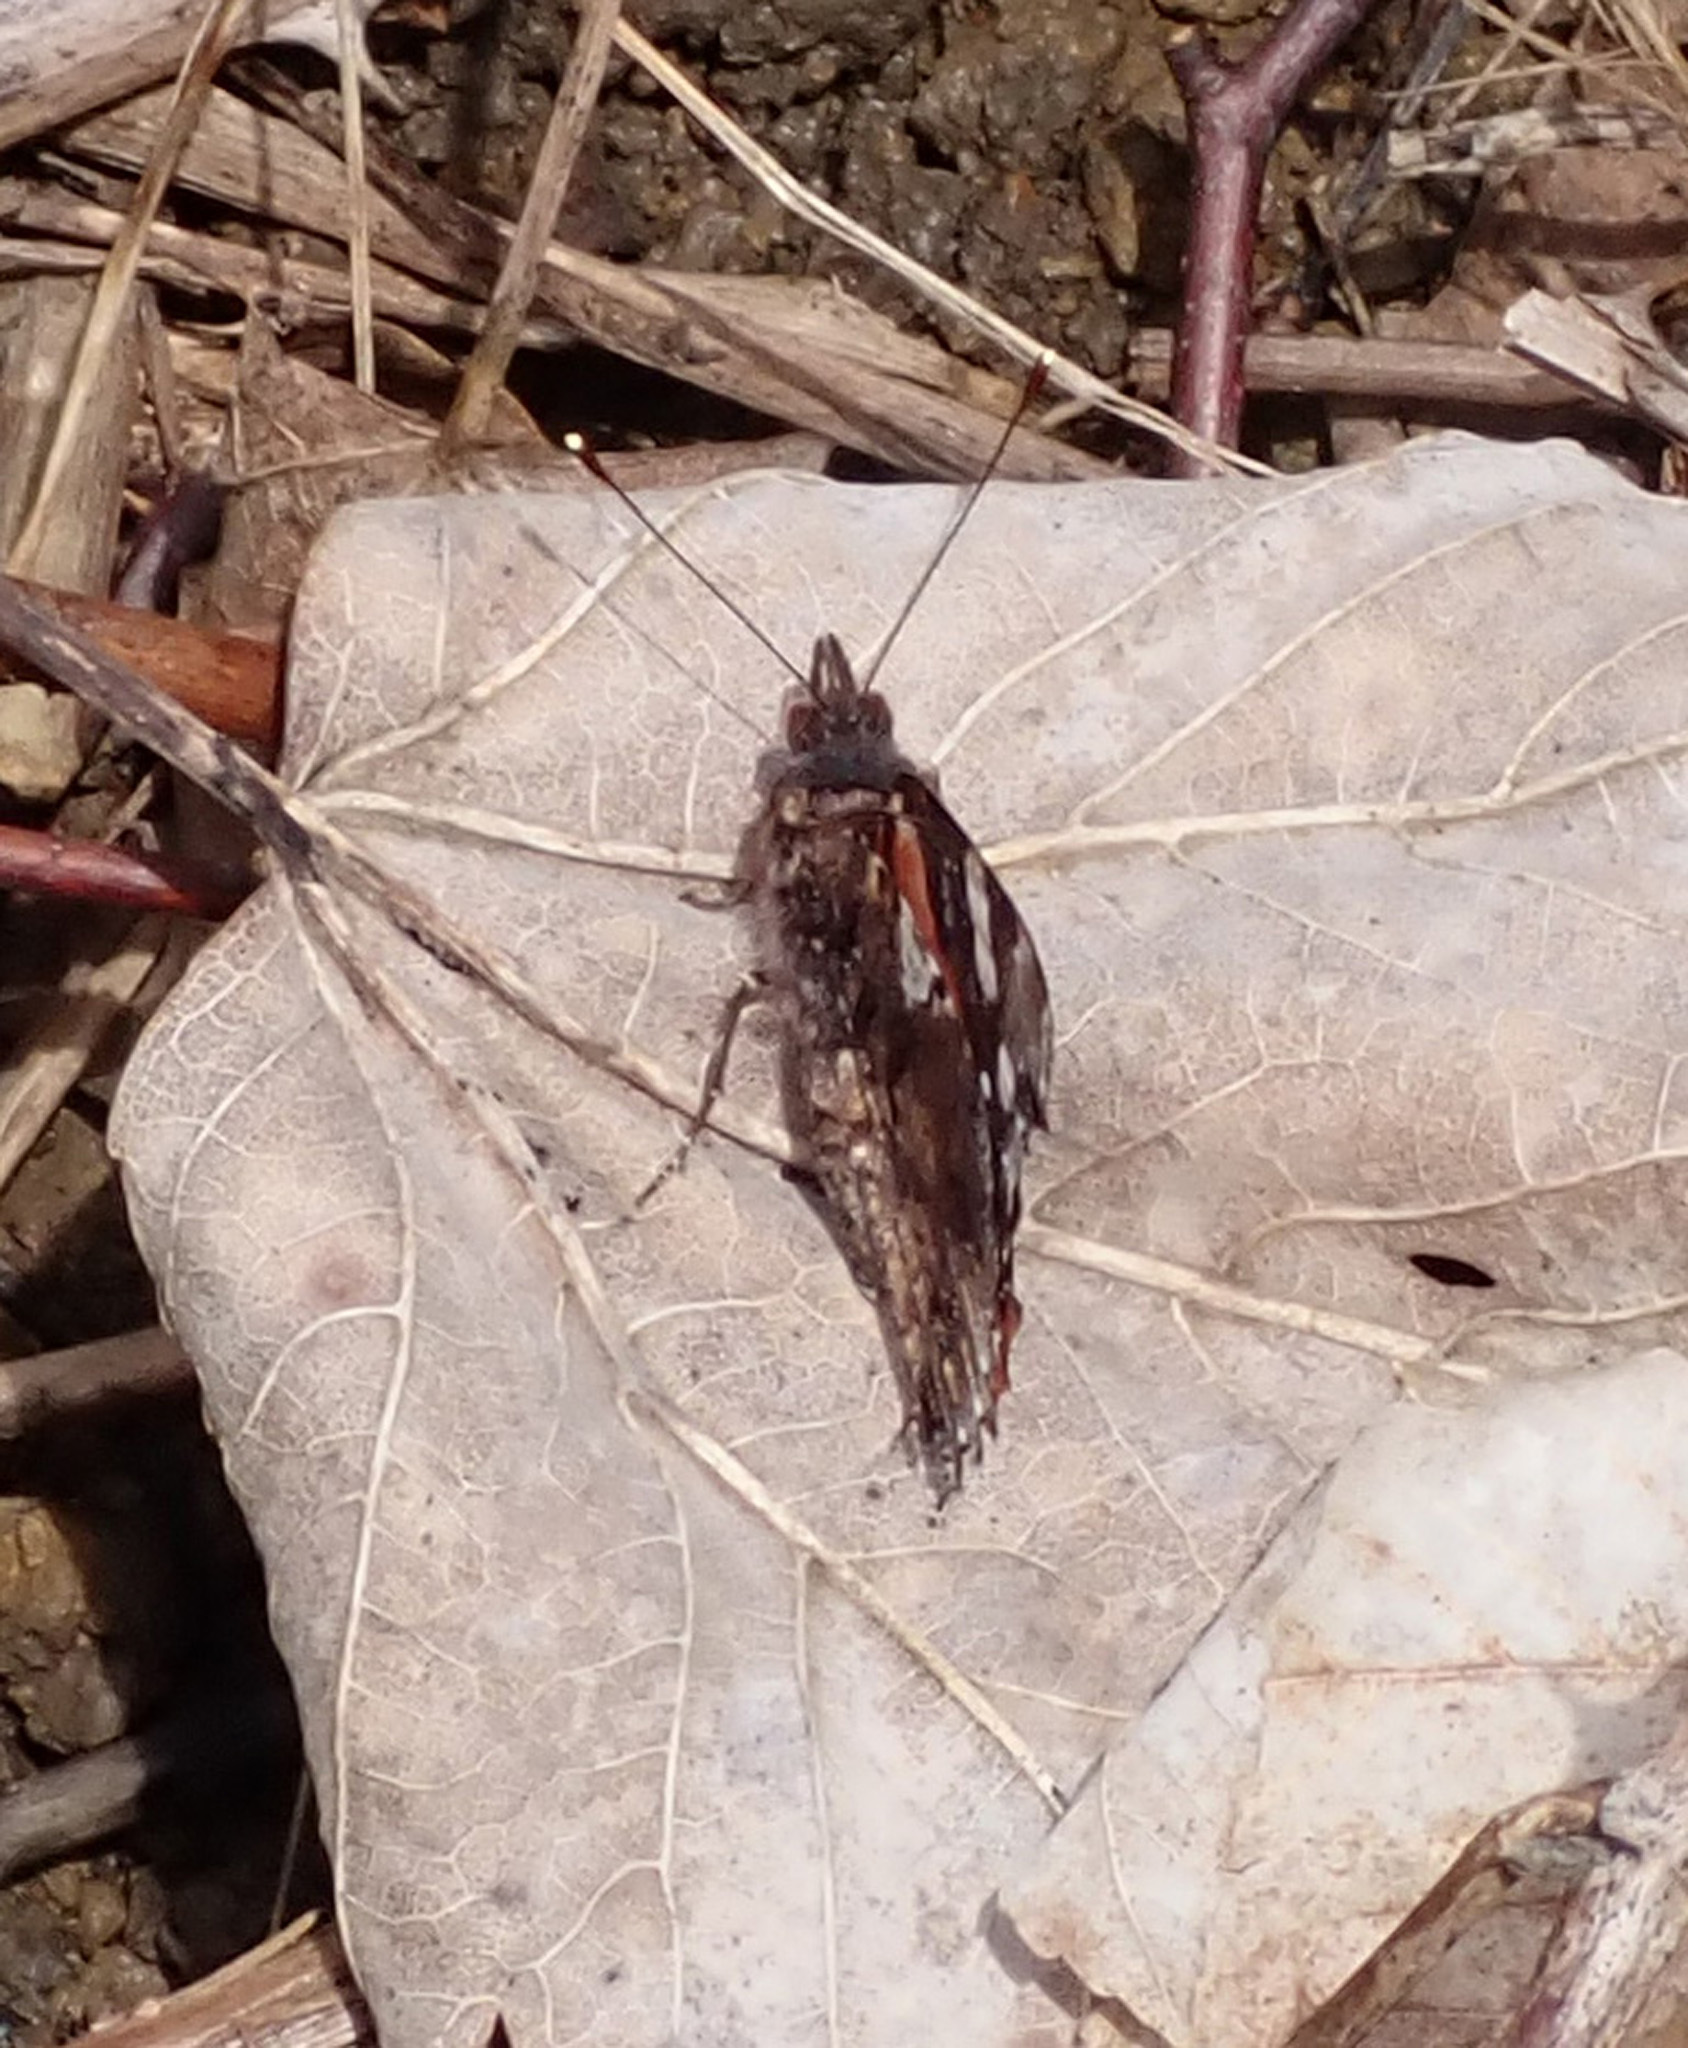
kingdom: Animalia
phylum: Arthropoda
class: Insecta
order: Lepidoptera
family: Nymphalidae
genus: Vanessa
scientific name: Vanessa atalanta
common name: Red admiral
